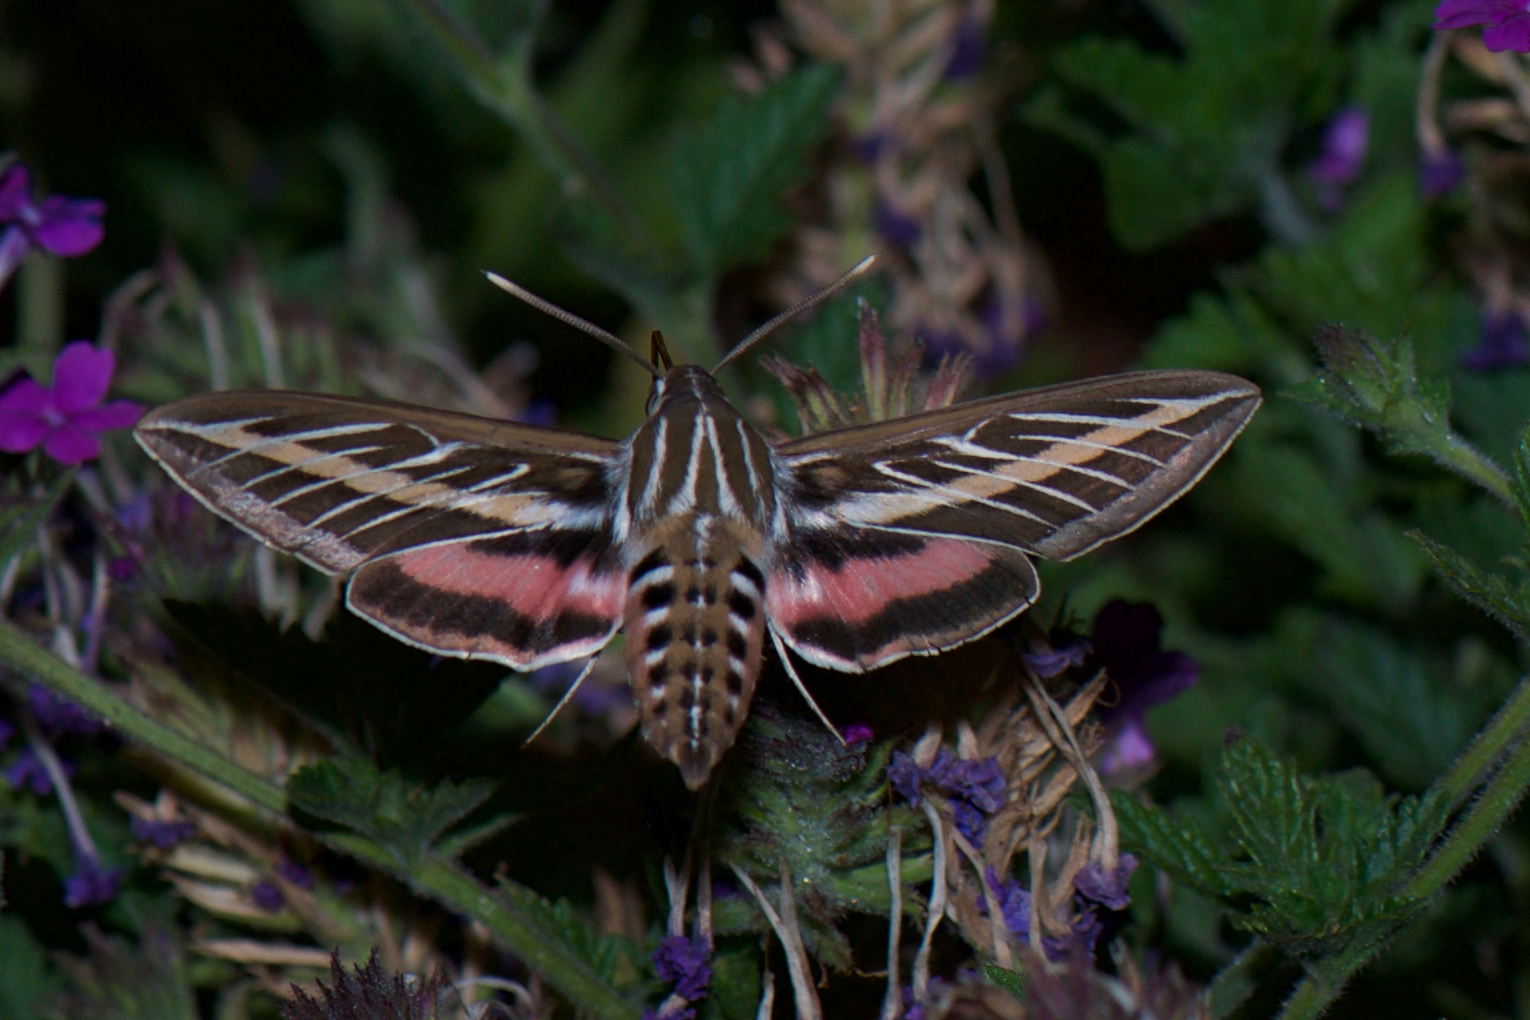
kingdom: Animalia
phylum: Arthropoda
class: Insecta
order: Lepidoptera
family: Sphingidae
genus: Hyles
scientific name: Hyles lineata
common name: White-lined sphinx
